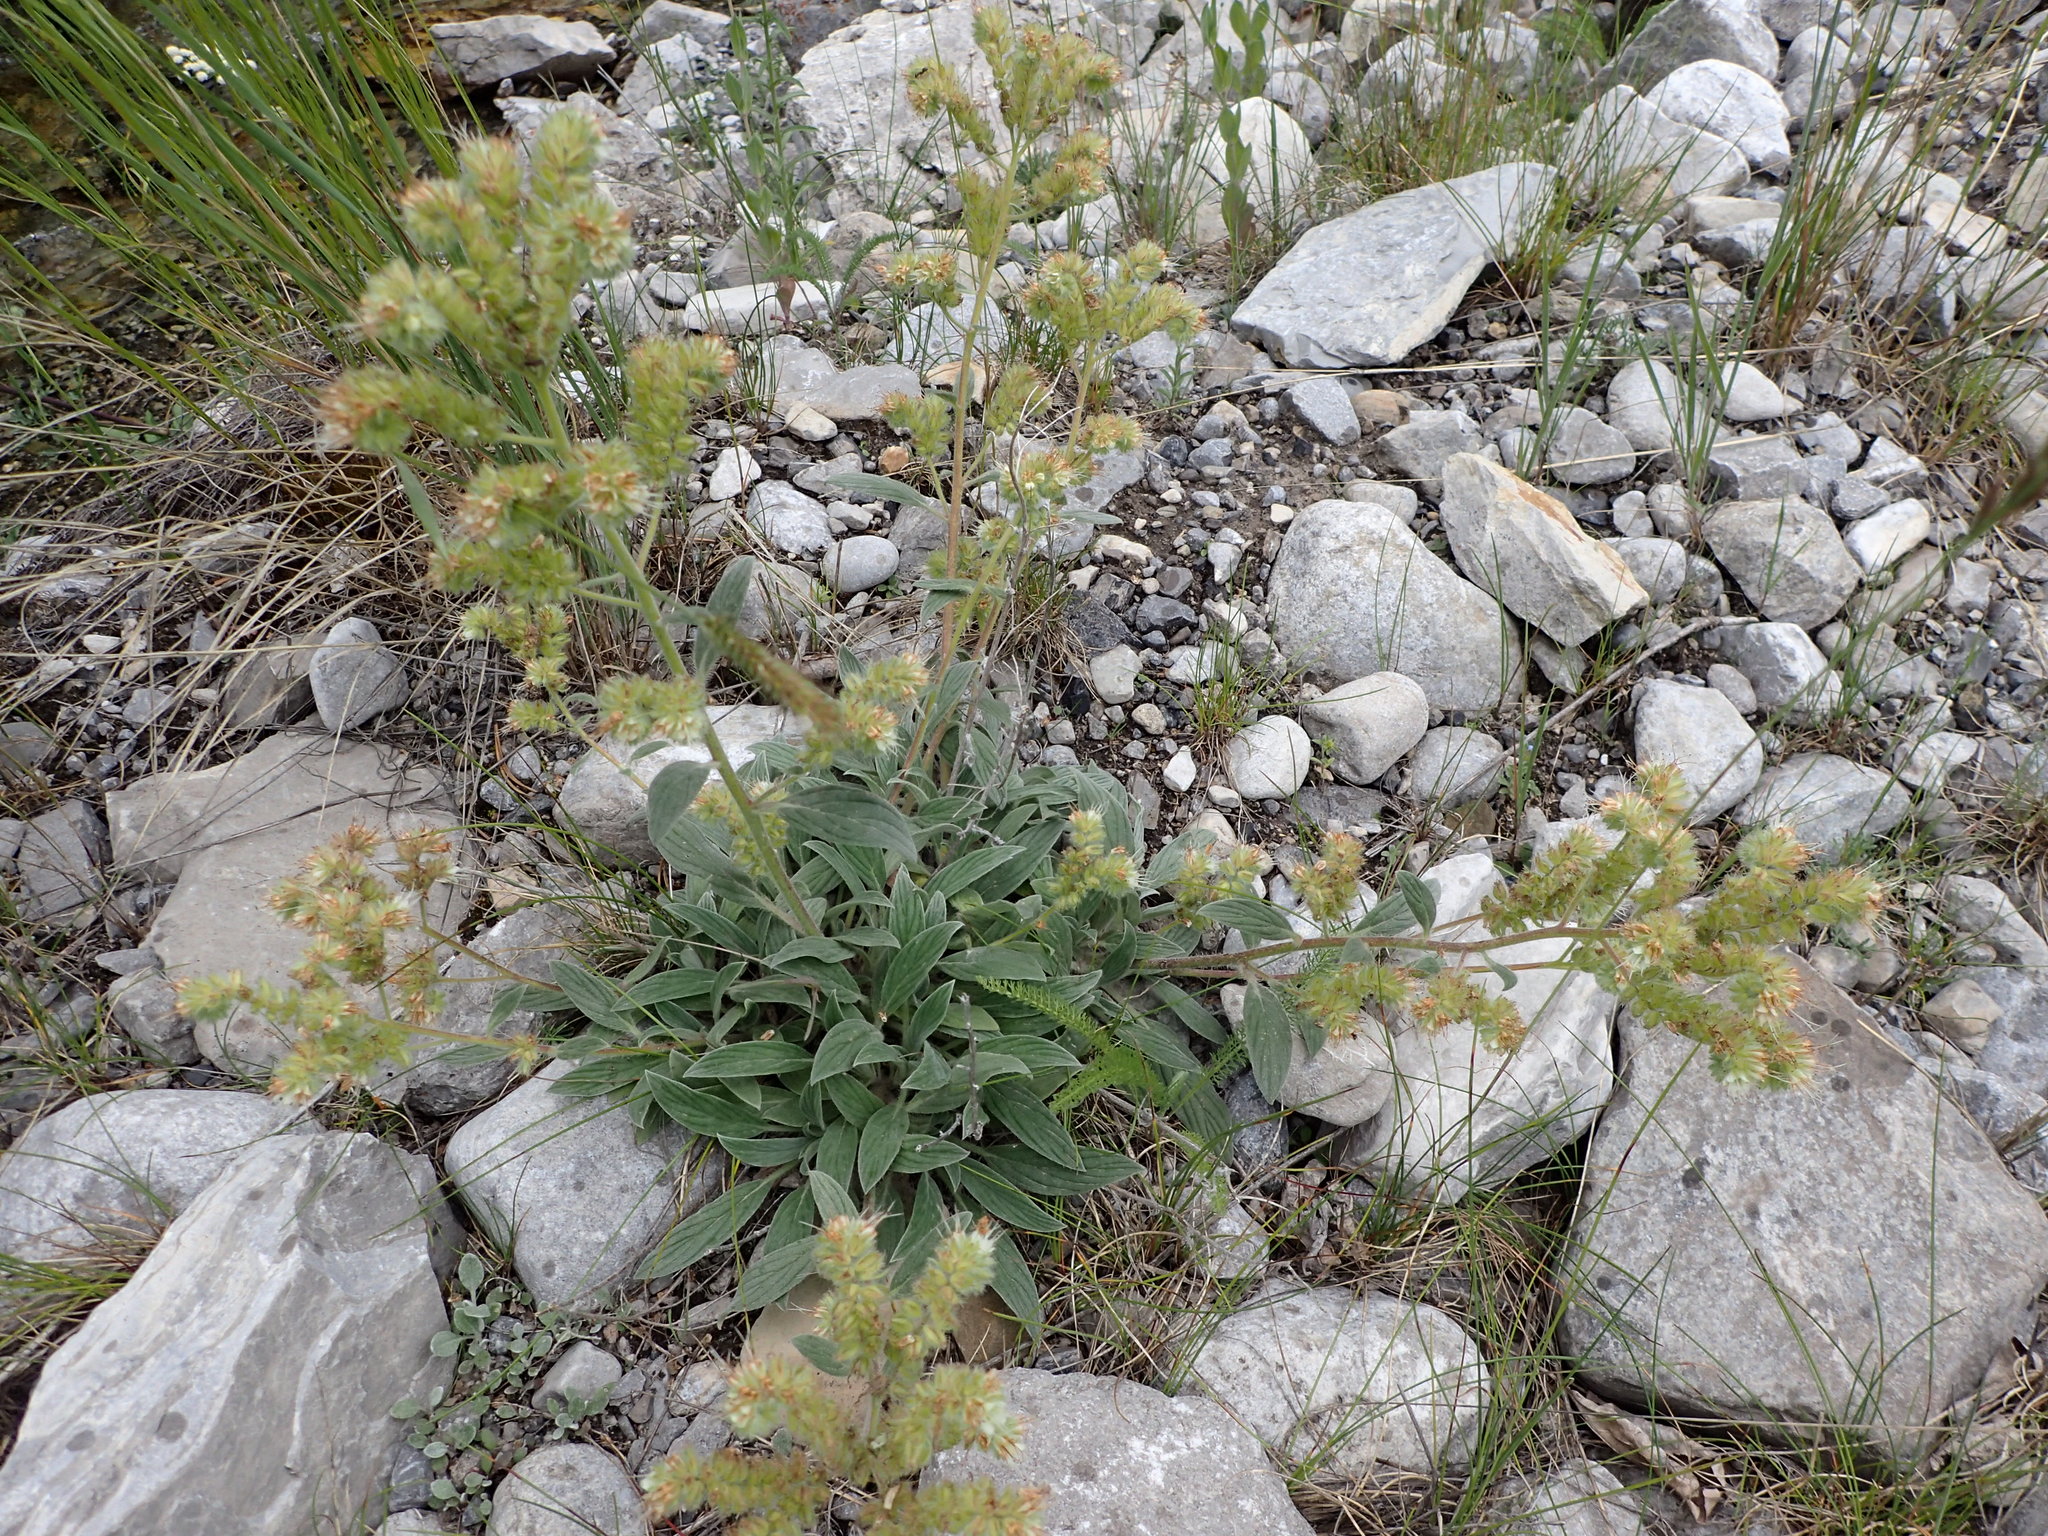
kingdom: Plantae
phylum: Tracheophyta
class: Magnoliopsida
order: Boraginales
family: Hydrophyllaceae
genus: Phacelia
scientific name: Phacelia hastata
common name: Silver-leaved phacelia
